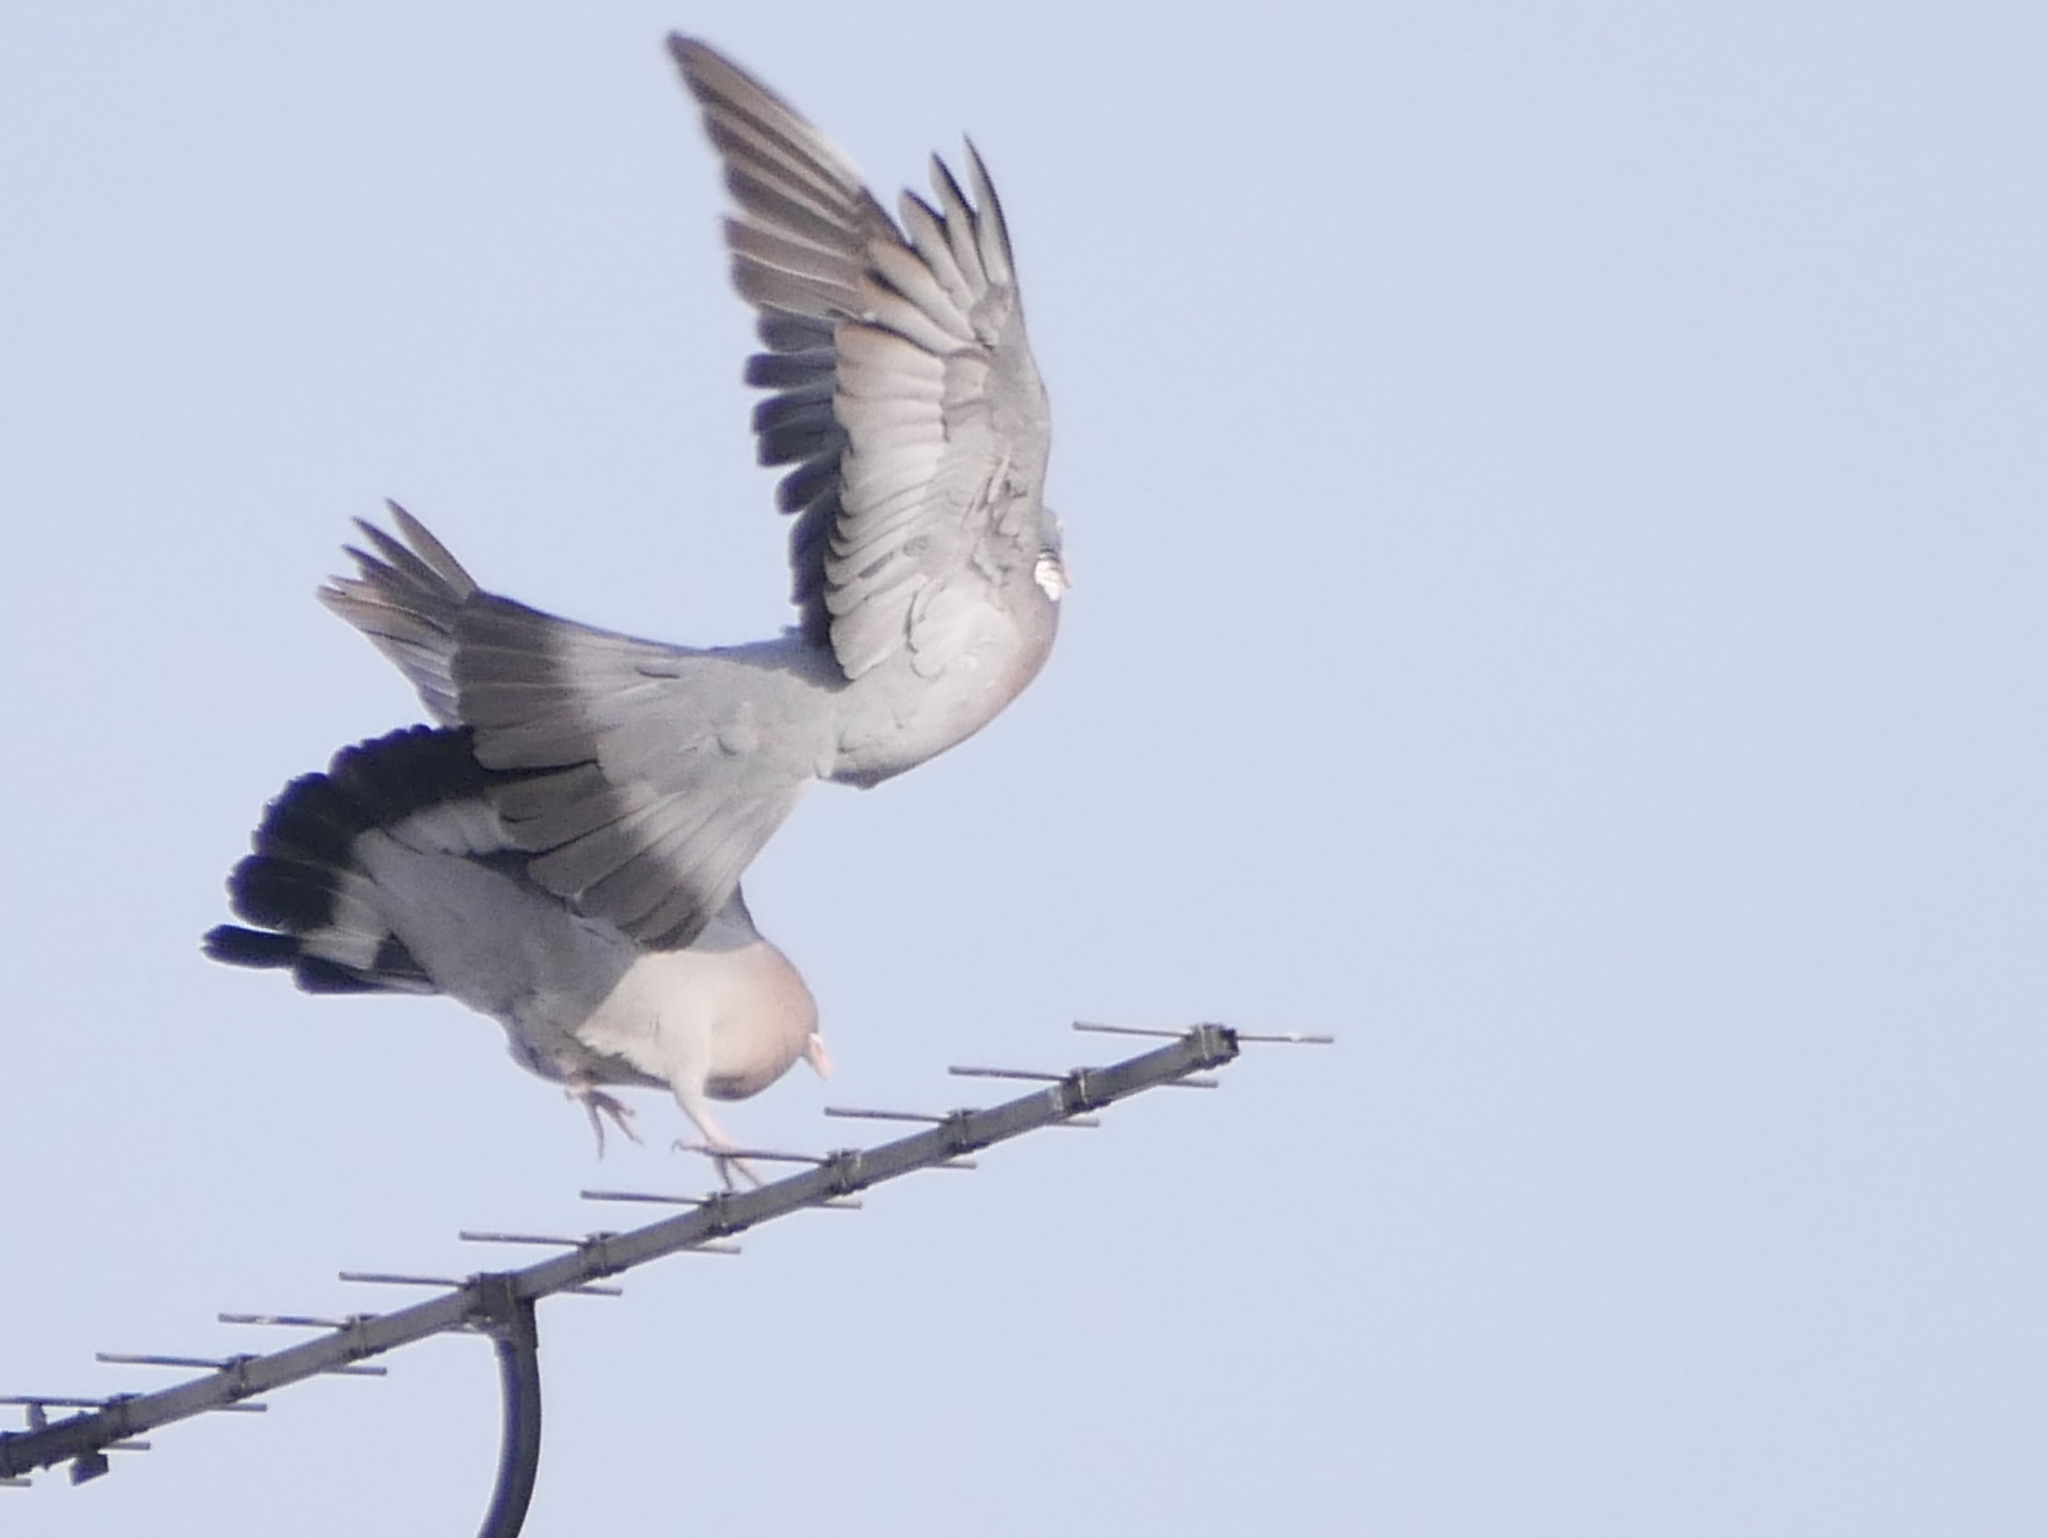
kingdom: Animalia
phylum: Chordata
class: Aves
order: Columbiformes
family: Columbidae
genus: Columba
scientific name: Columba palumbus
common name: Common wood pigeon
